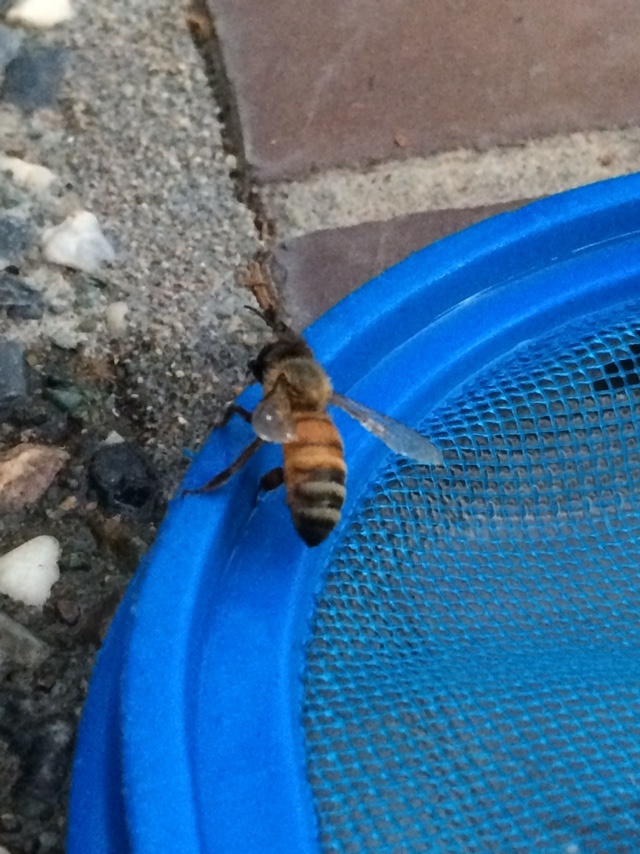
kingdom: Animalia
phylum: Arthropoda
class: Insecta
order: Hymenoptera
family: Apidae
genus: Apis
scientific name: Apis mellifera
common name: Honey bee
